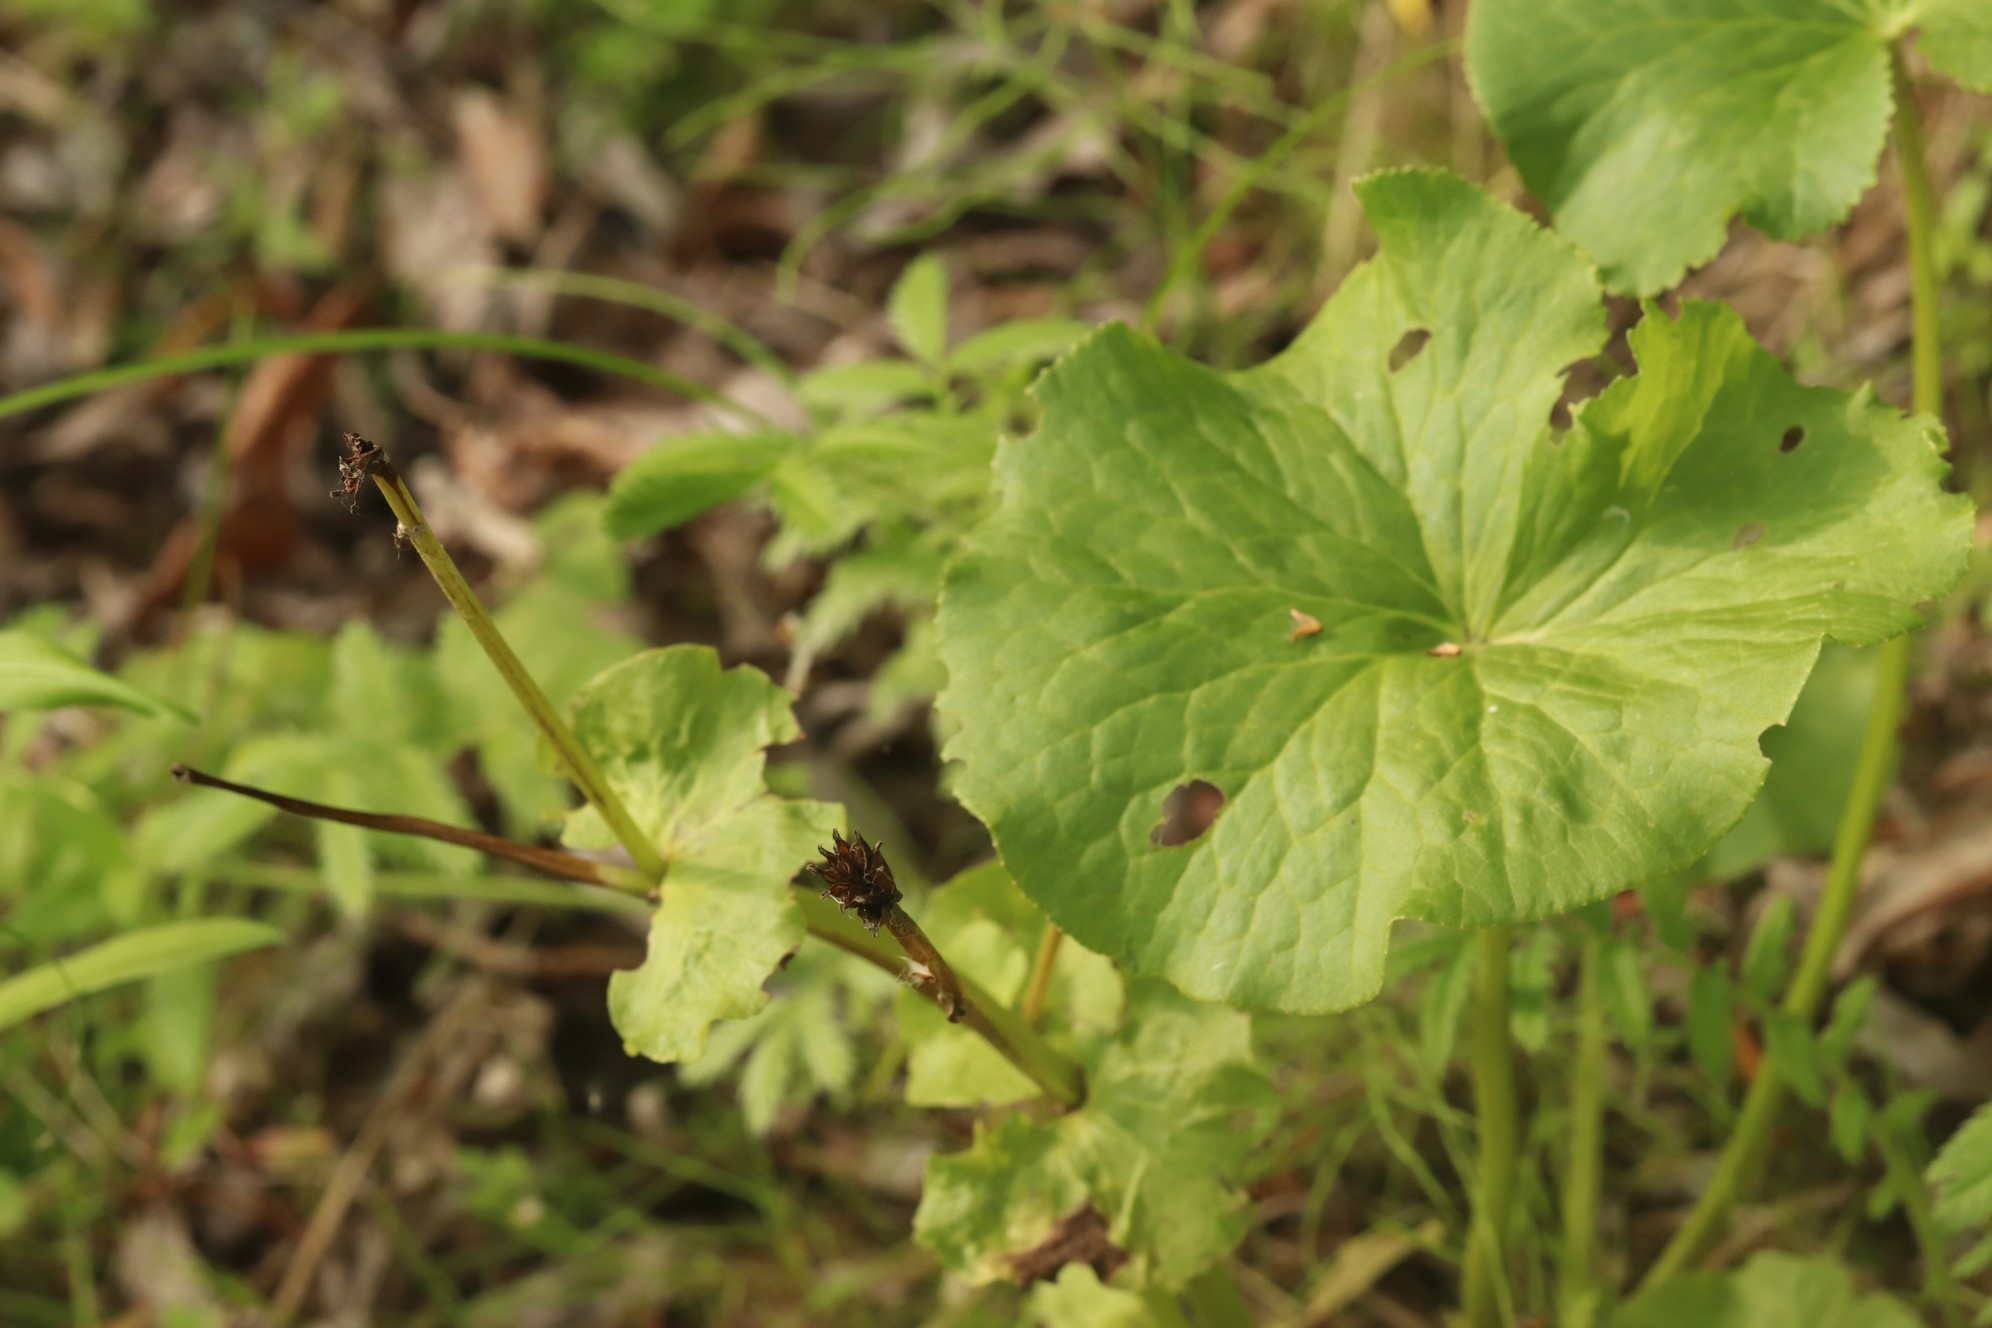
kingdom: Plantae
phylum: Tracheophyta
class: Magnoliopsida
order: Ranunculales
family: Ranunculaceae
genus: Caltha
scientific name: Caltha palustris
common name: Marsh marigold
